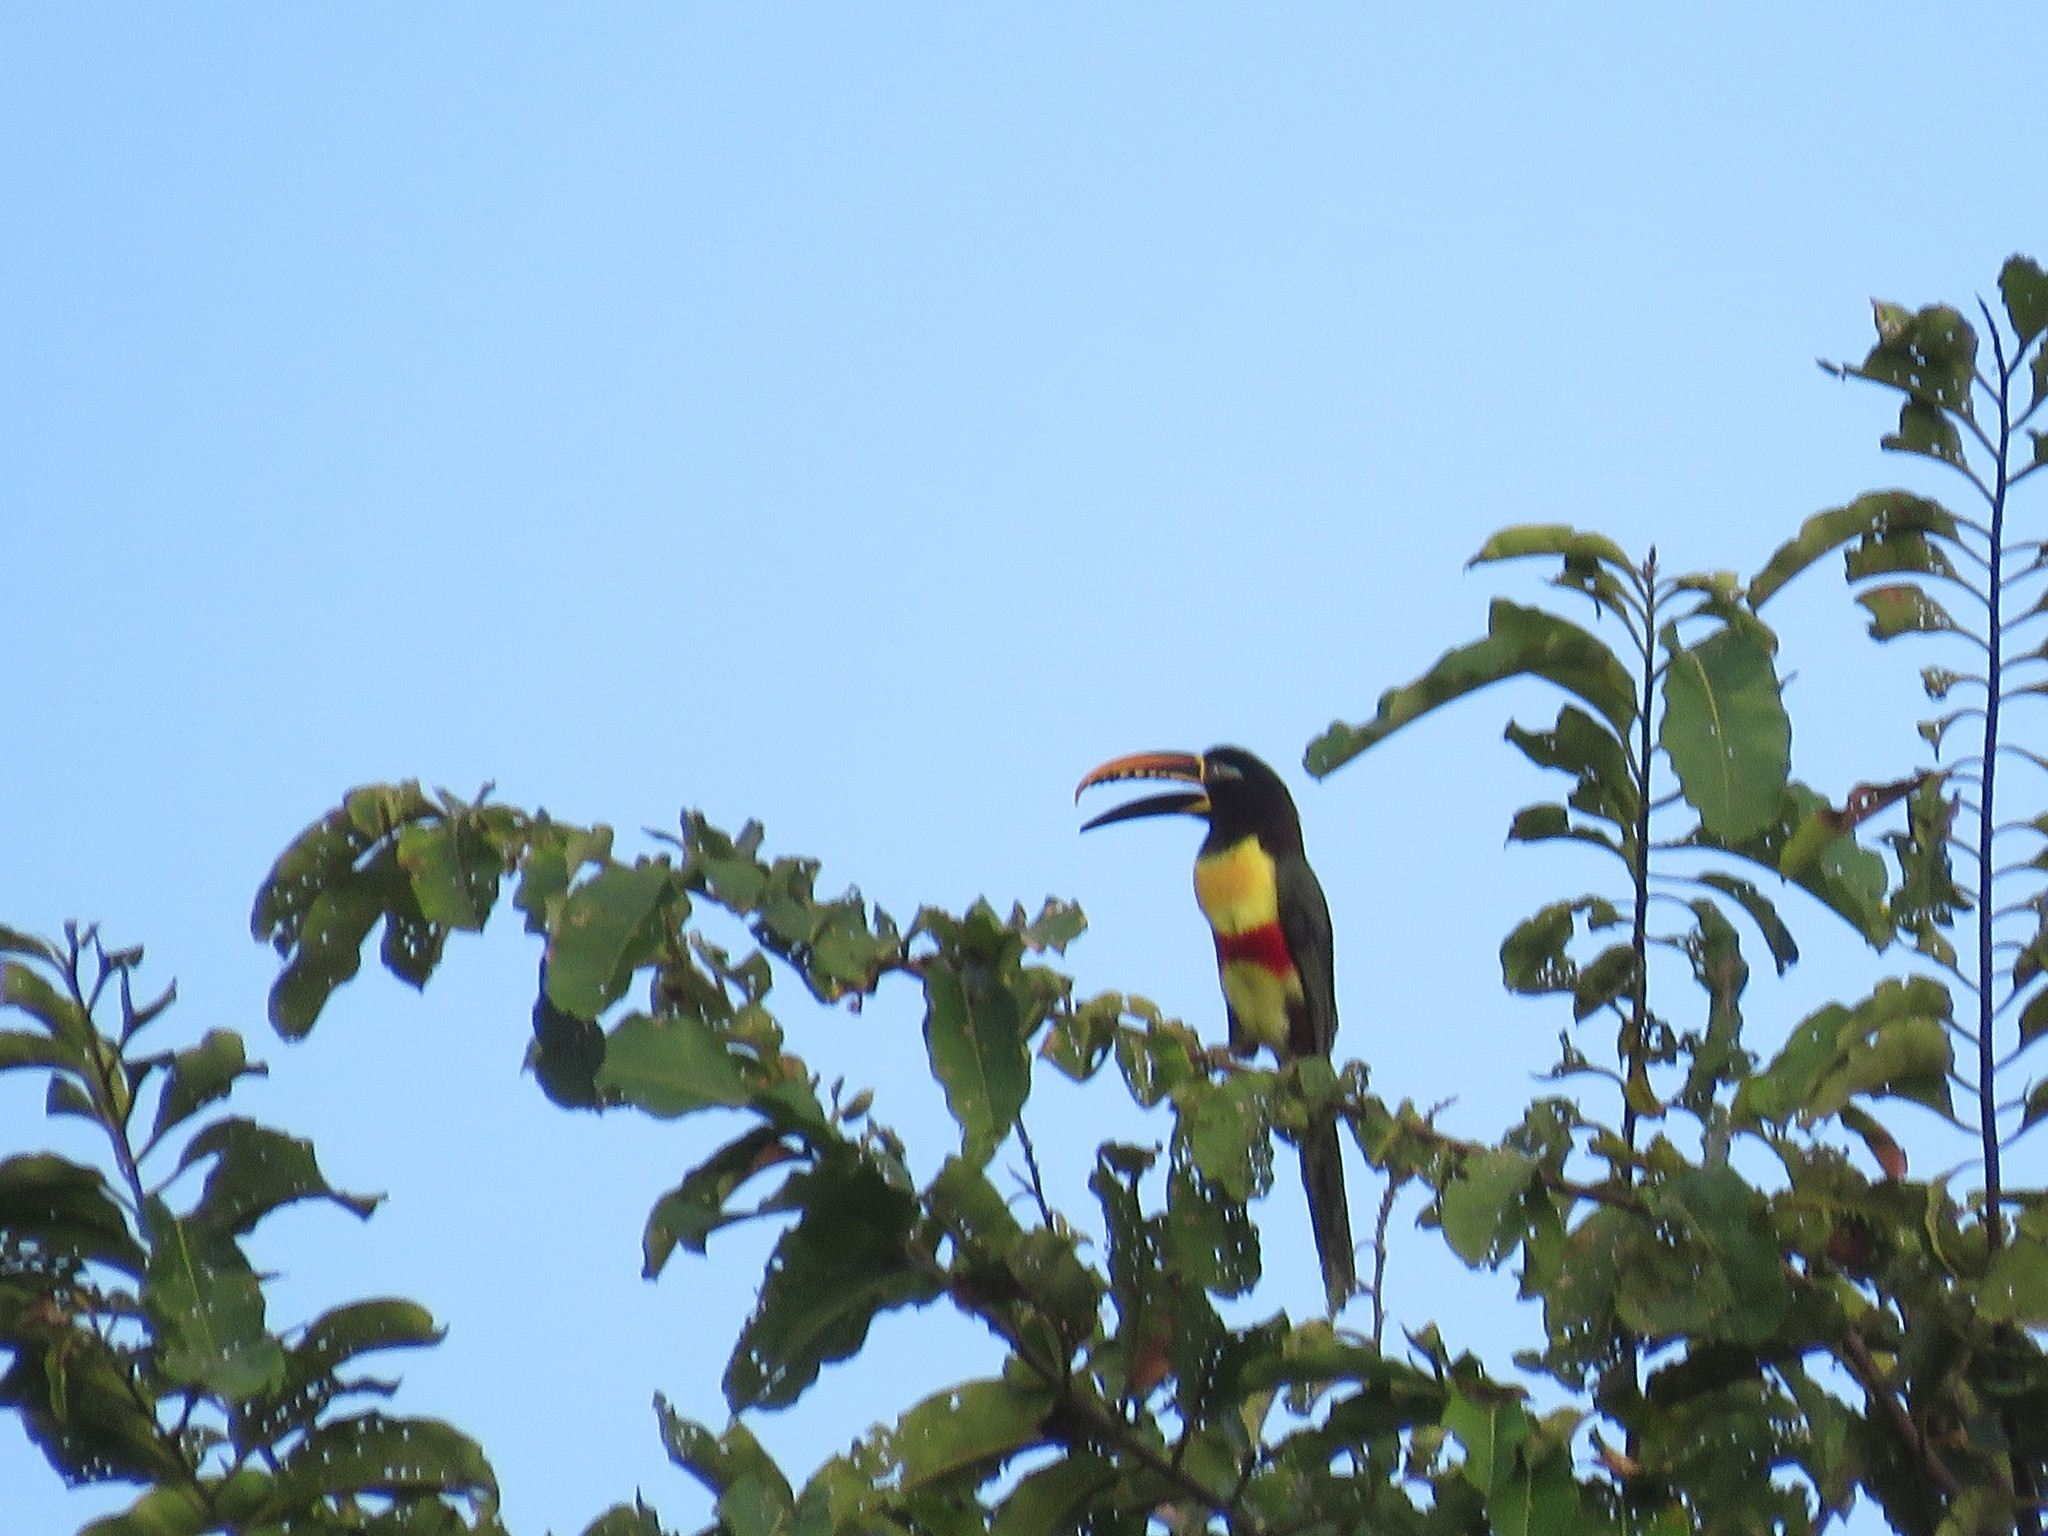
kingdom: Animalia
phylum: Chordata
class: Aves
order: Piciformes
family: Ramphastidae
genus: Pteroglossus
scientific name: Pteroglossus castanotis
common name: Chestnut-eared aracari
